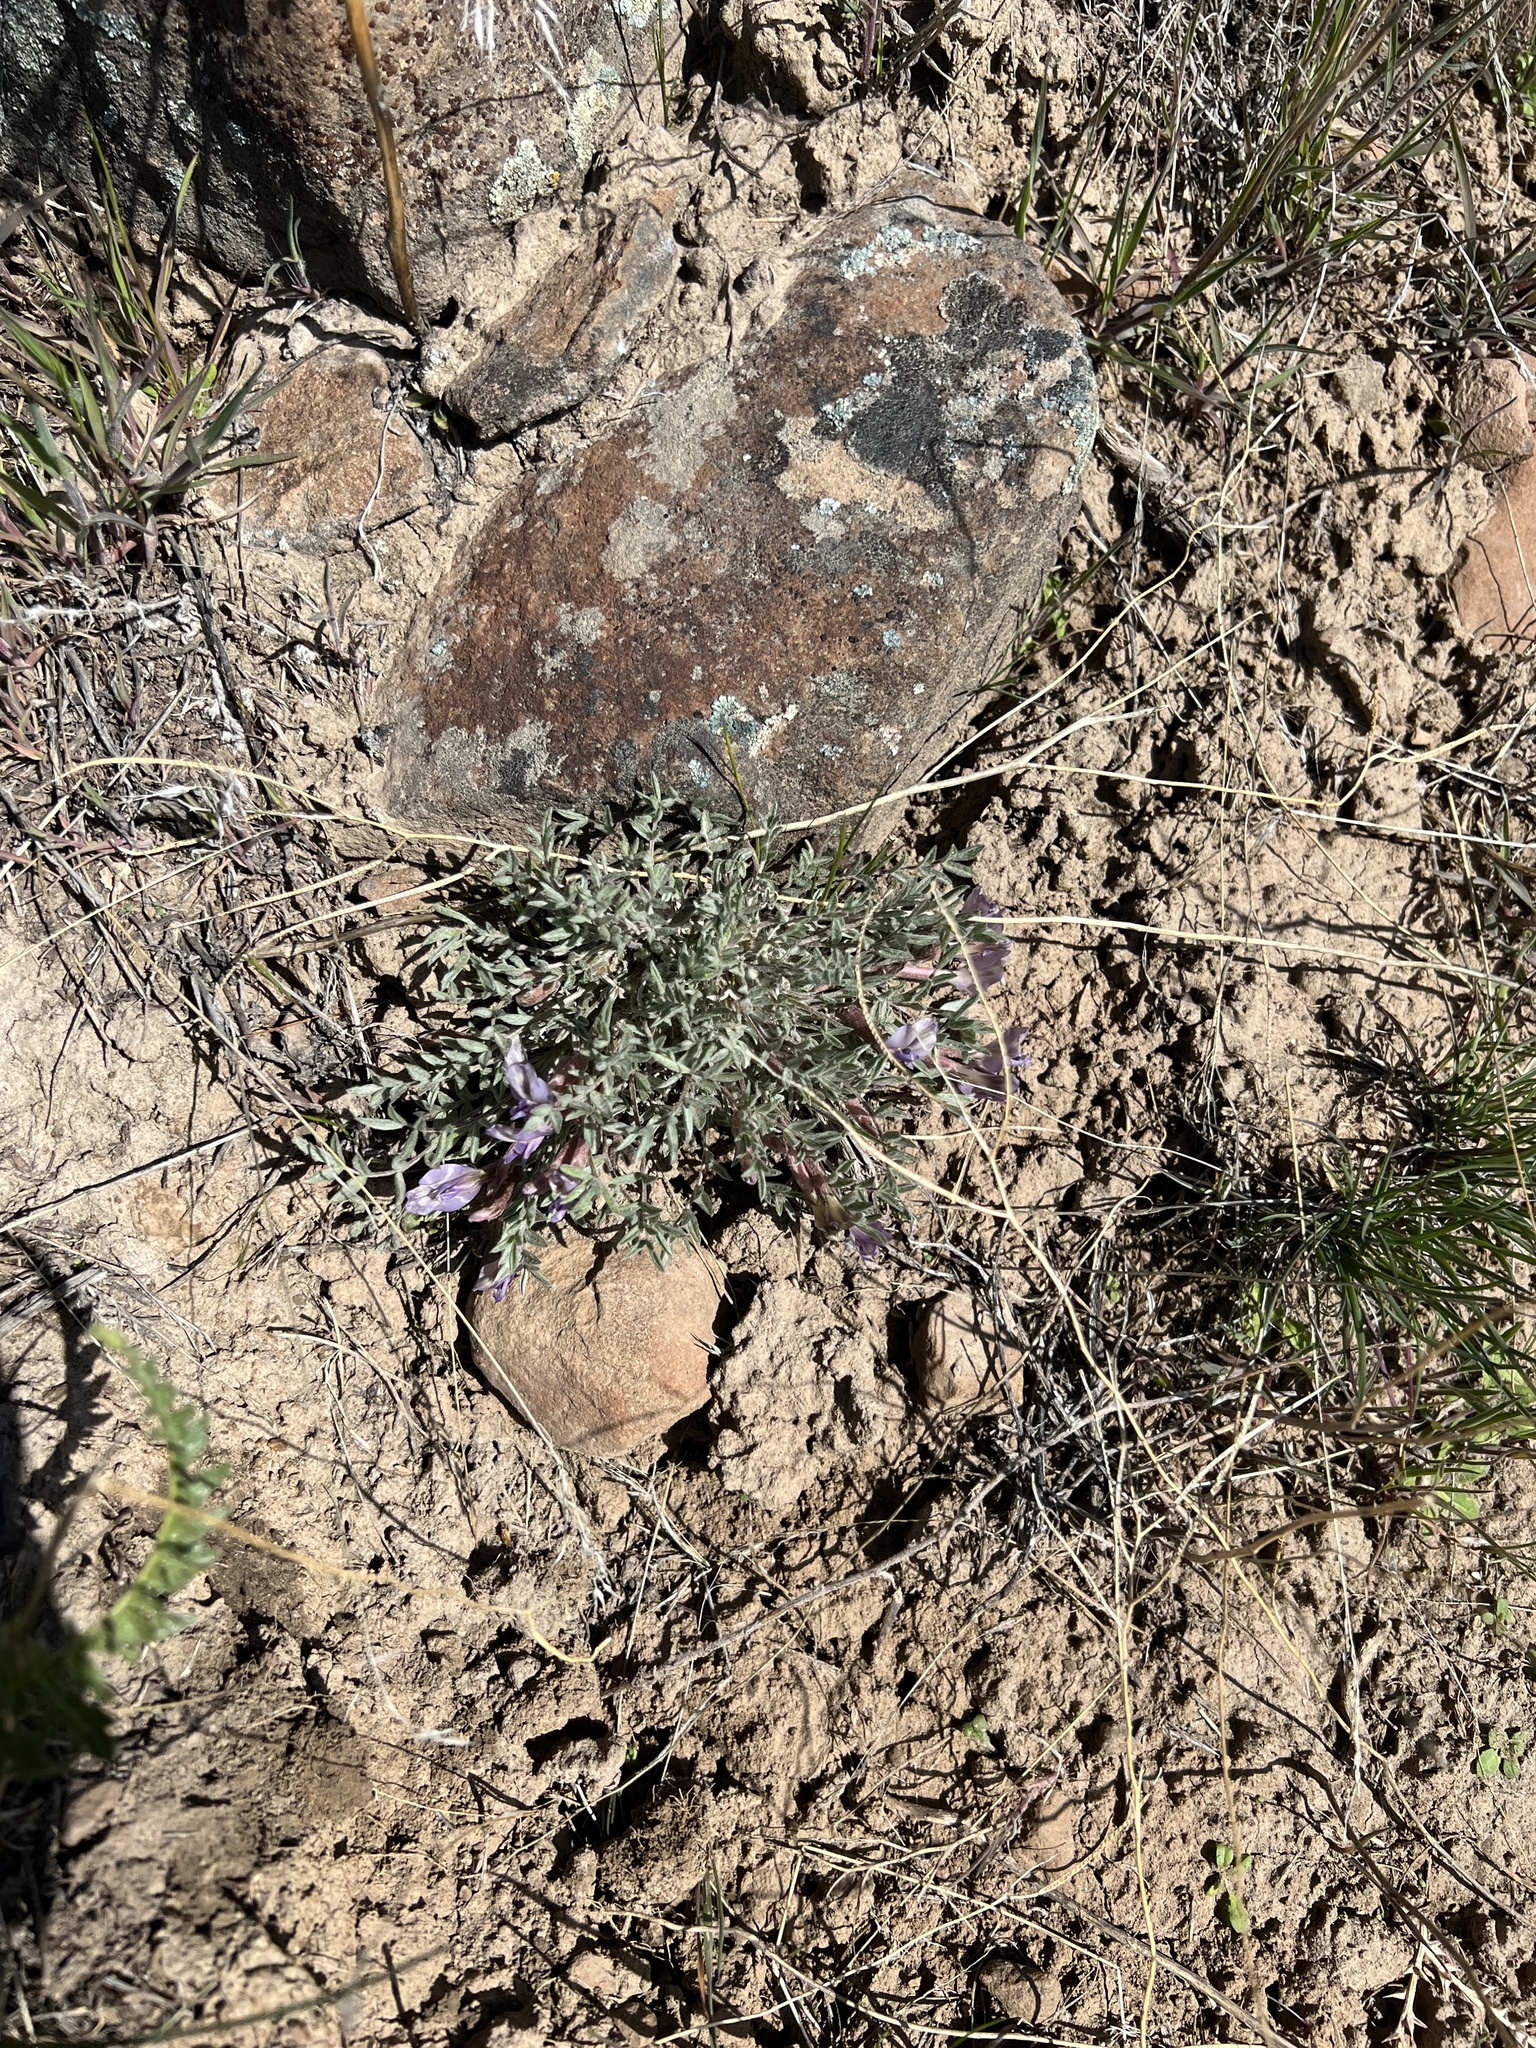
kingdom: Plantae
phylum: Tracheophyta
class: Magnoliopsida
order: Fabales
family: Fabaceae
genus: Astragalus
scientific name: Astragalus purshii
